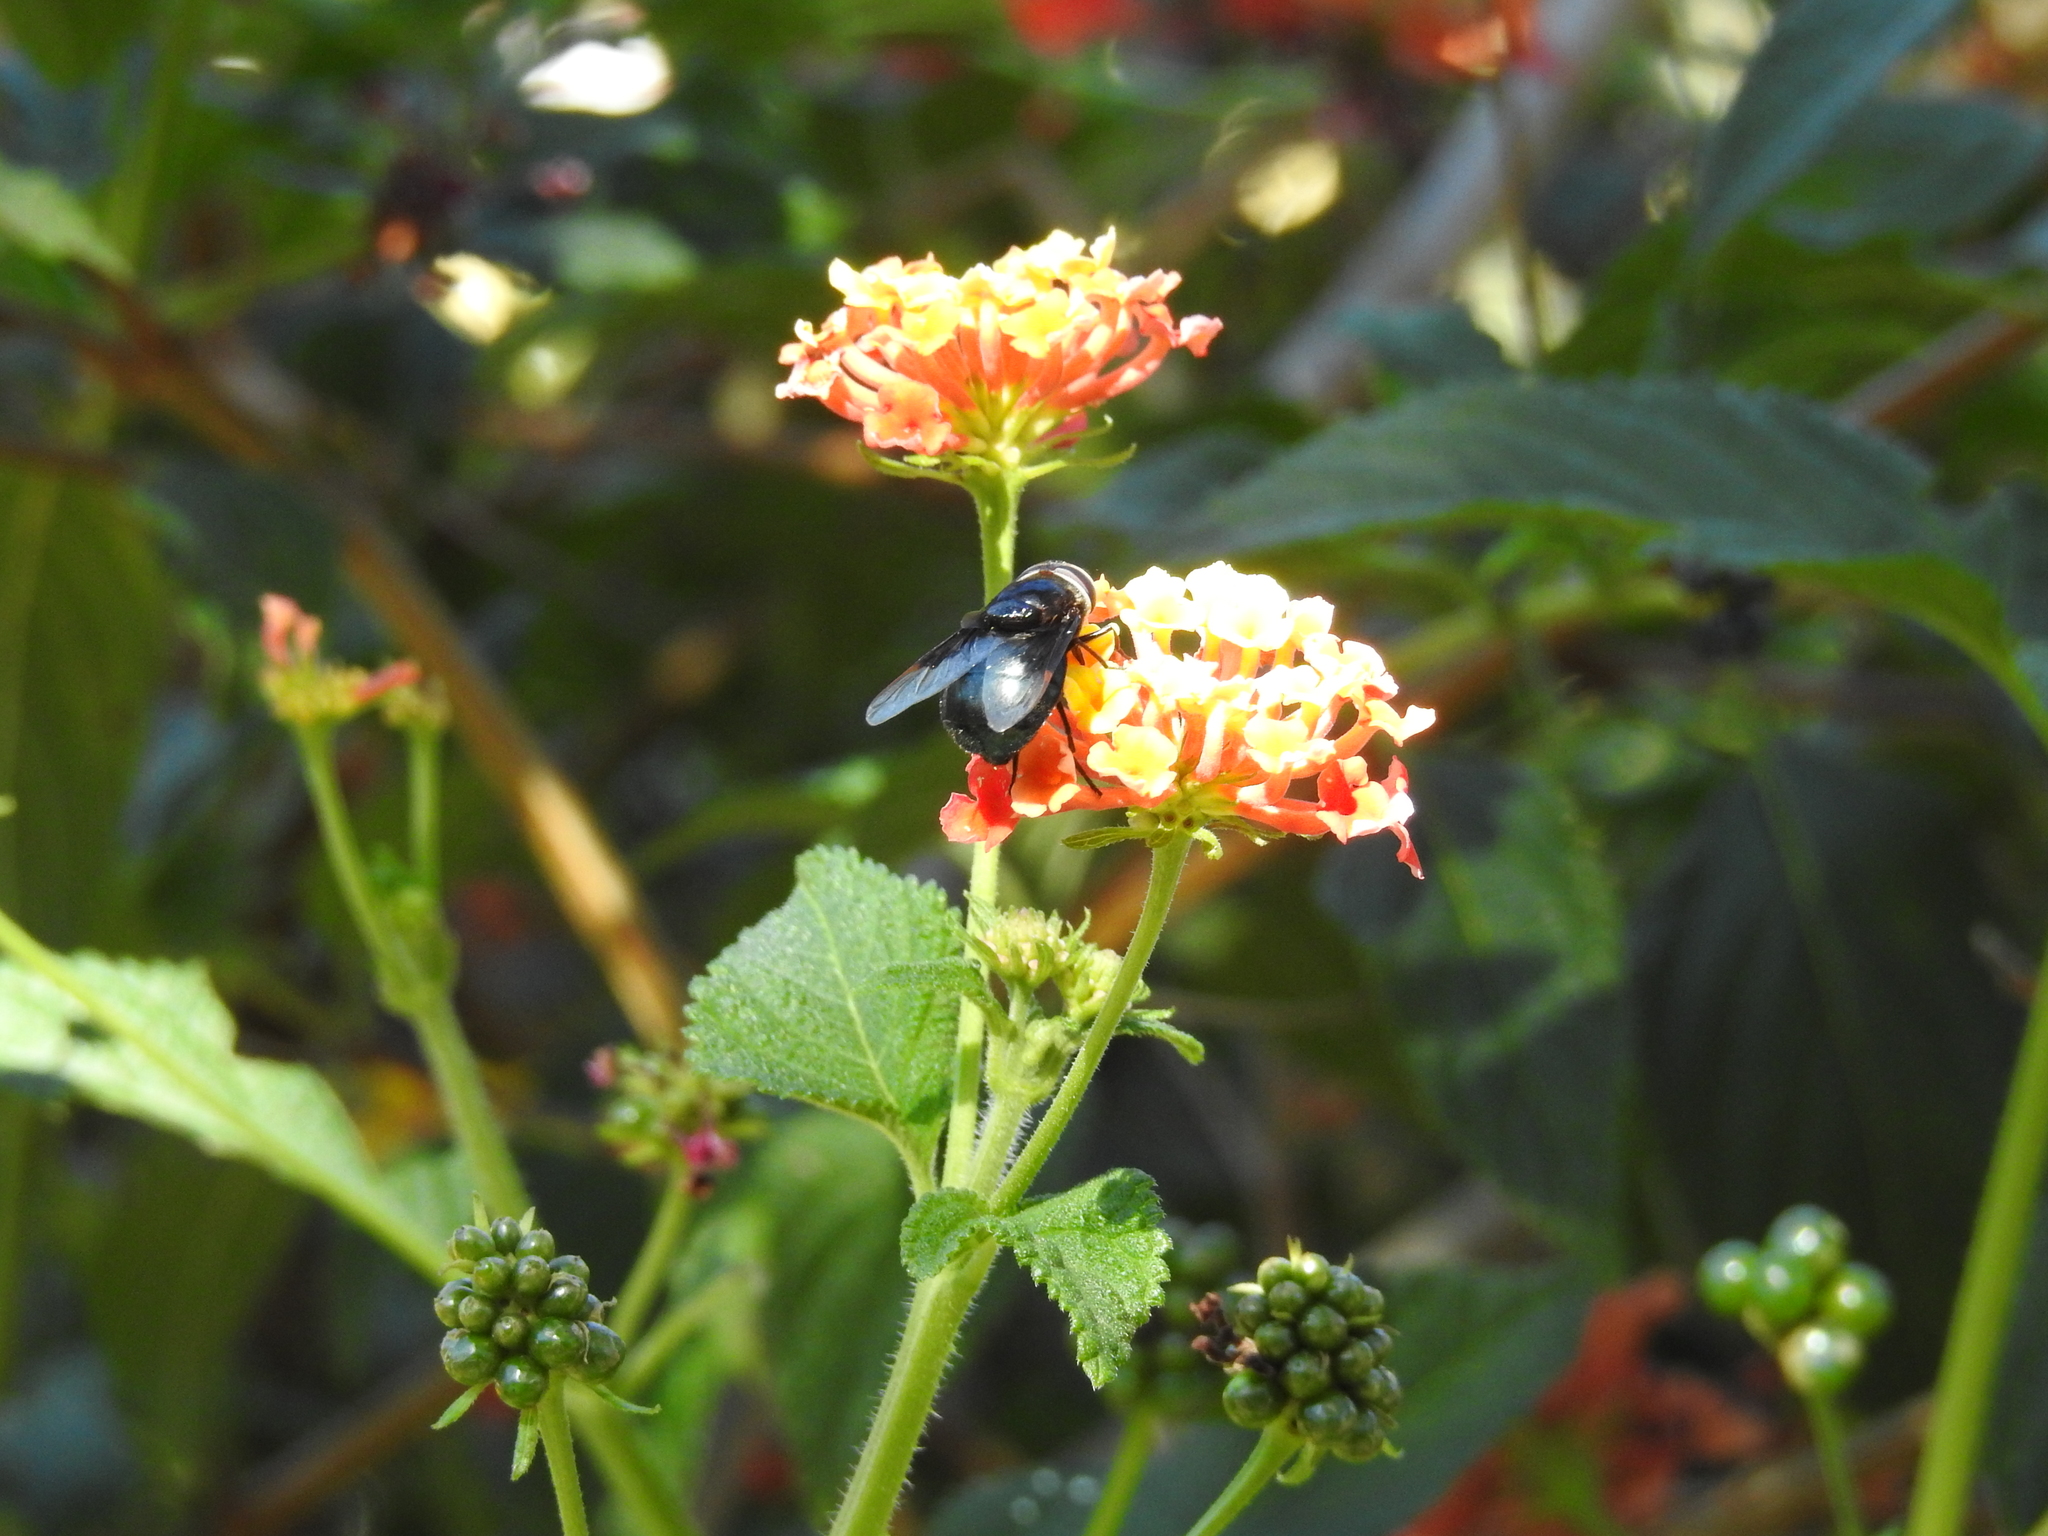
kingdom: Animalia
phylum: Arthropoda
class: Insecta
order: Diptera
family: Syrphidae
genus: Copestylum
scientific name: Copestylum mexicanum
